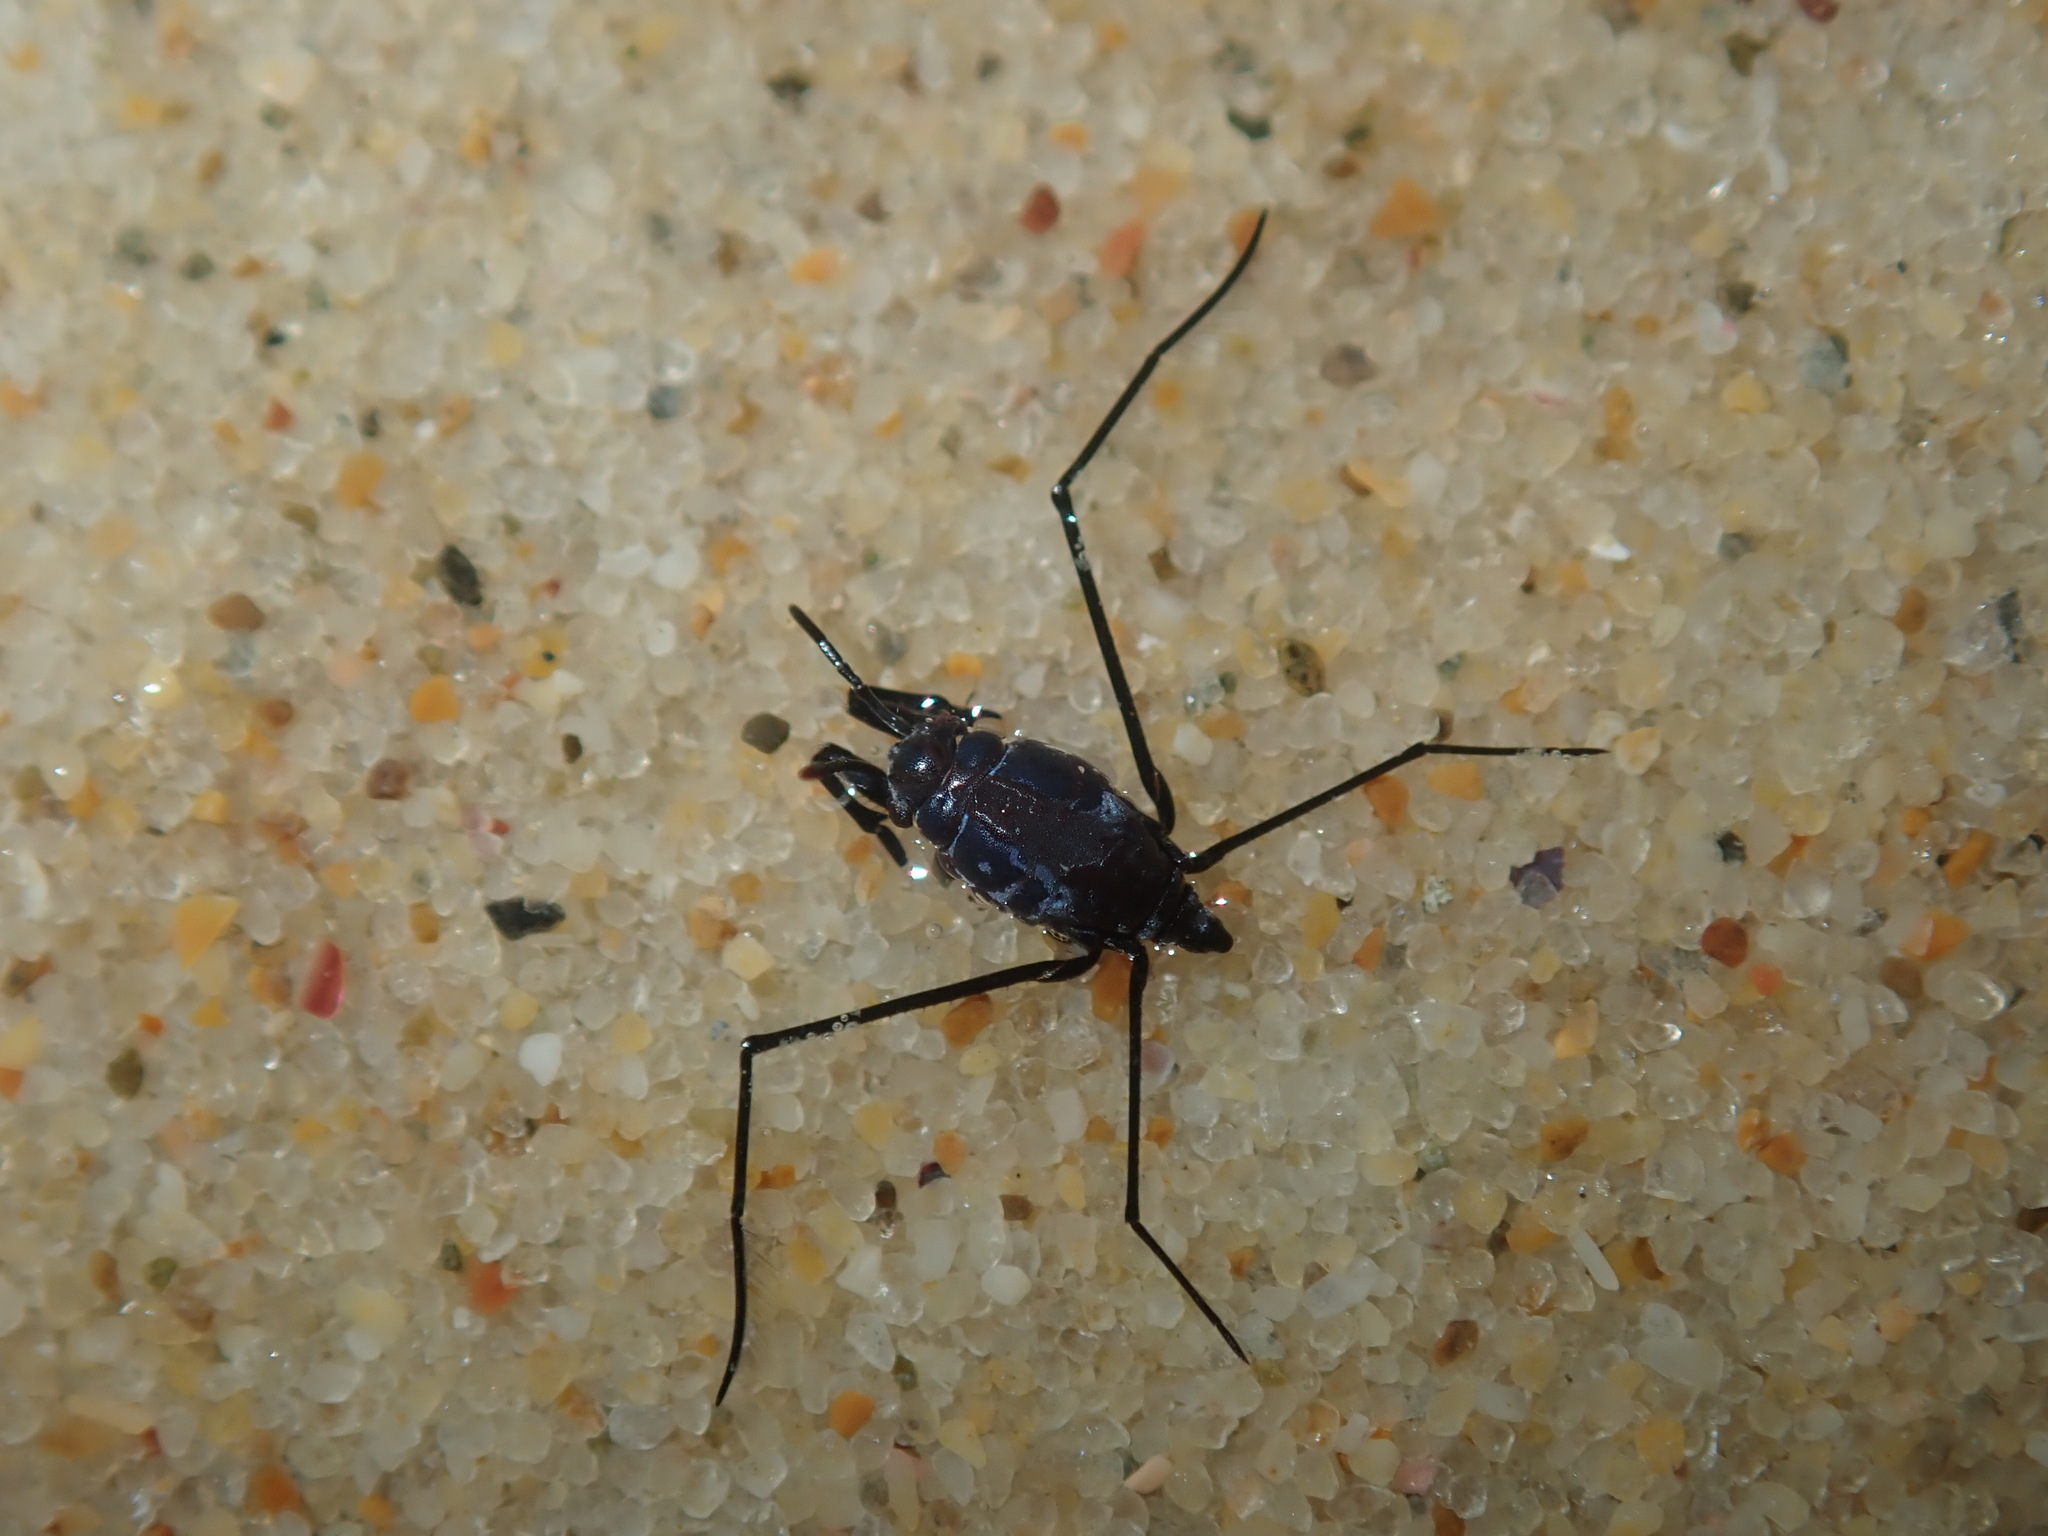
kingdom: Animalia
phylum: Arthropoda
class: Insecta
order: Hemiptera
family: Gerridae
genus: Halobates
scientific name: Halobates
